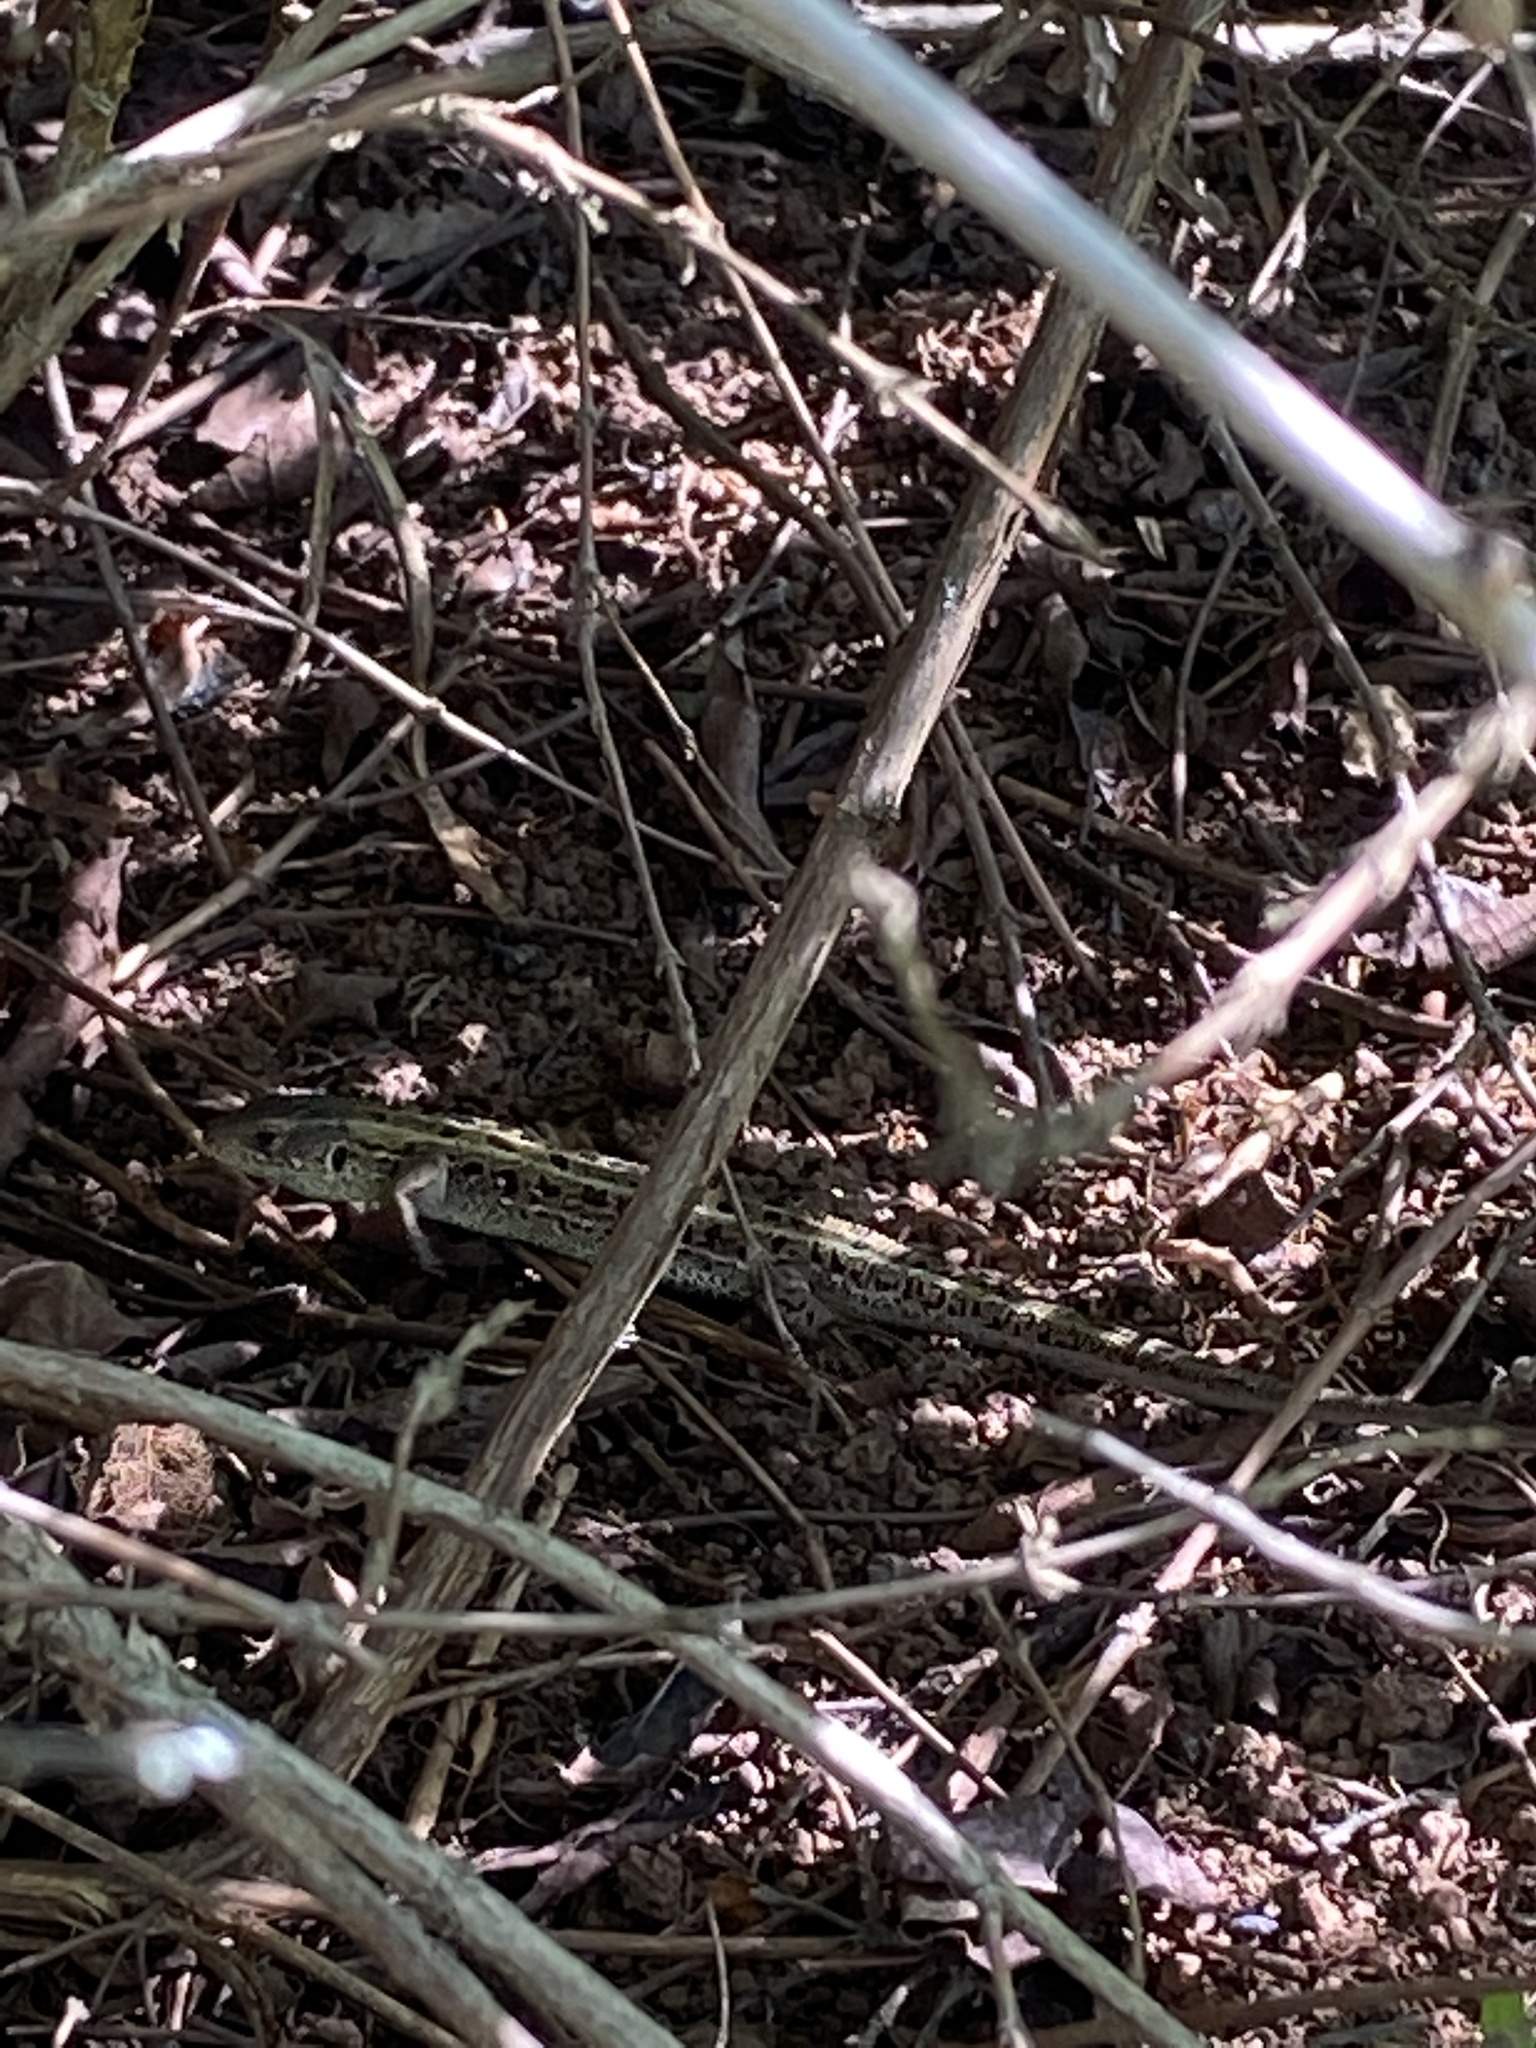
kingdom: Animalia
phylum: Chordata
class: Squamata
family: Lacertidae
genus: Lacerta
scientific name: Lacerta agilis
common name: Sand lizard
